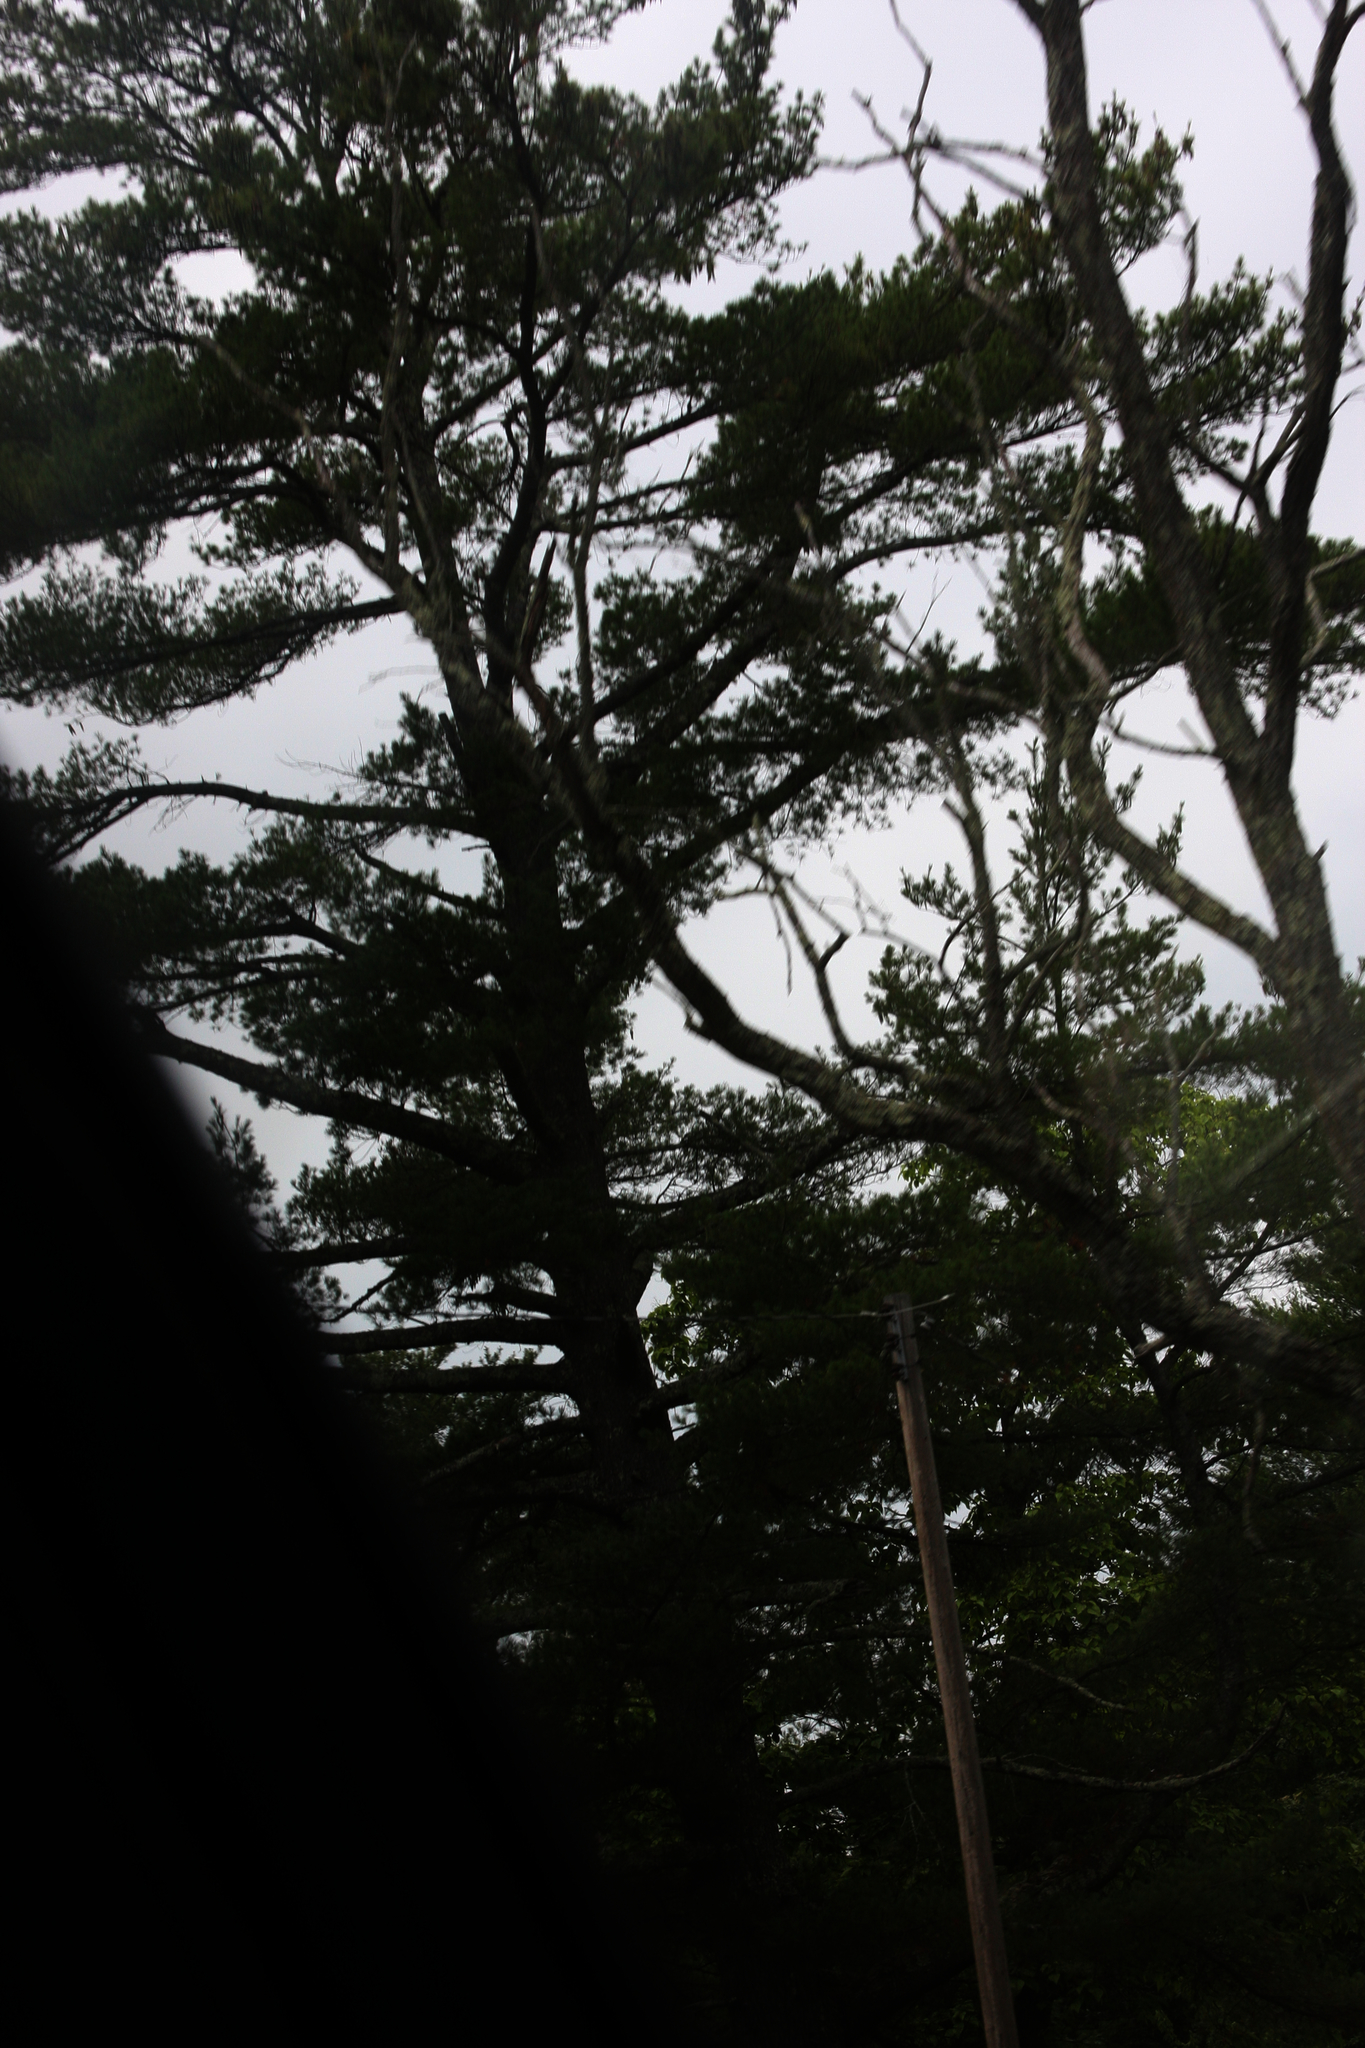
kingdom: Plantae
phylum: Tracheophyta
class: Pinopsida
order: Pinales
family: Pinaceae
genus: Pinus
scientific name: Pinus strobus
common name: Weymouth pine
